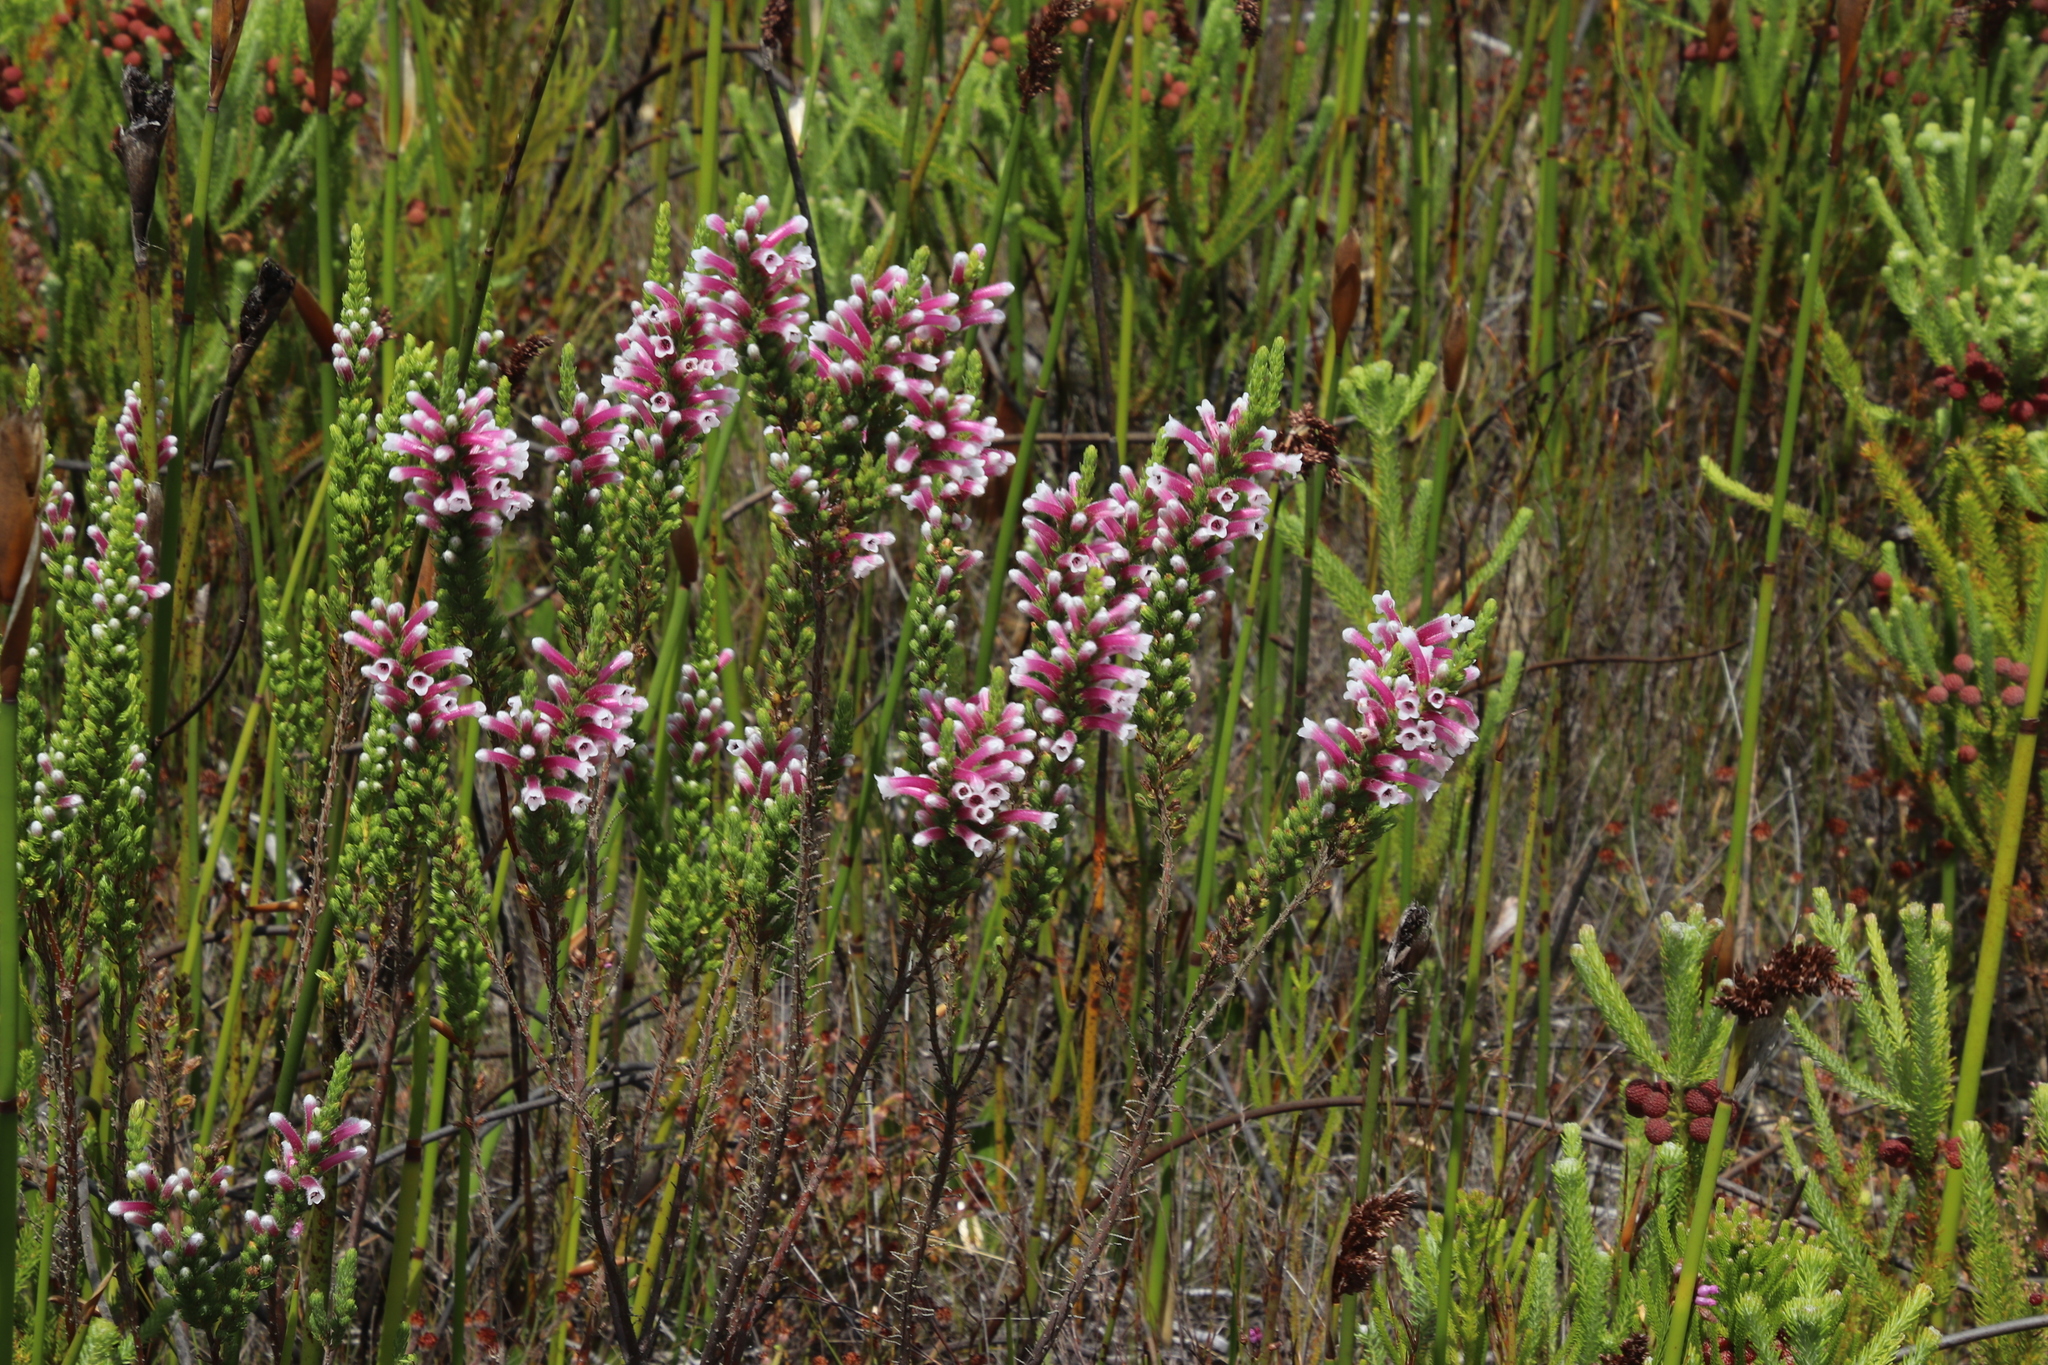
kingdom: Plantae
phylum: Tracheophyta
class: Magnoliopsida
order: Ericales
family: Ericaceae
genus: Erica
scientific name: Erica macowanii
